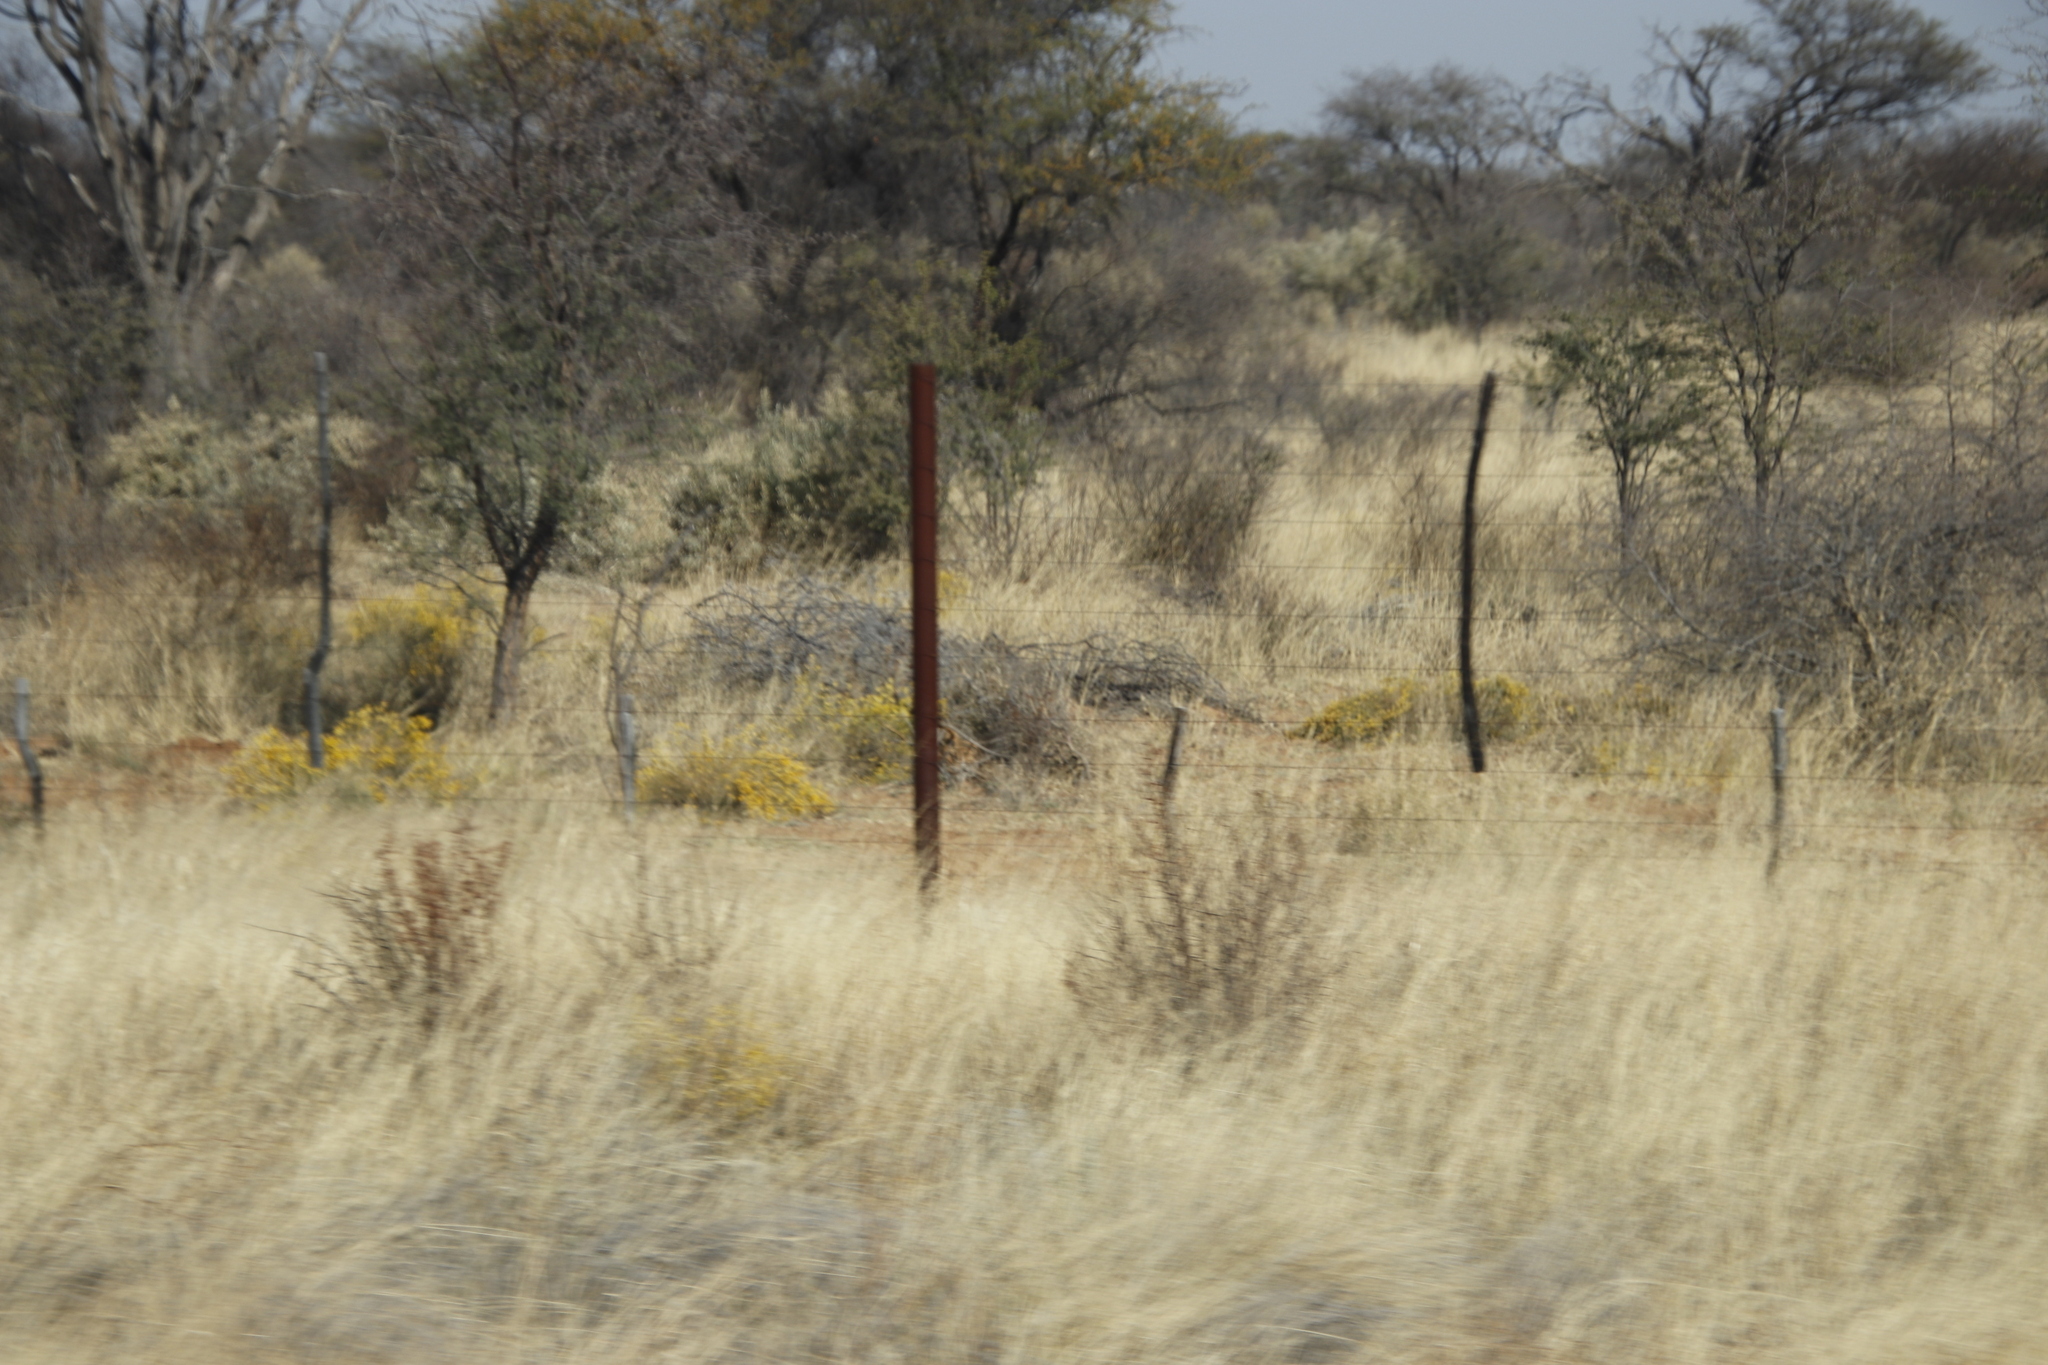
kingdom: Plantae
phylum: Tracheophyta
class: Magnoliopsida
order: Malvales
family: Thymelaeaceae
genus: Gnidia
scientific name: Gnidia polycephala
